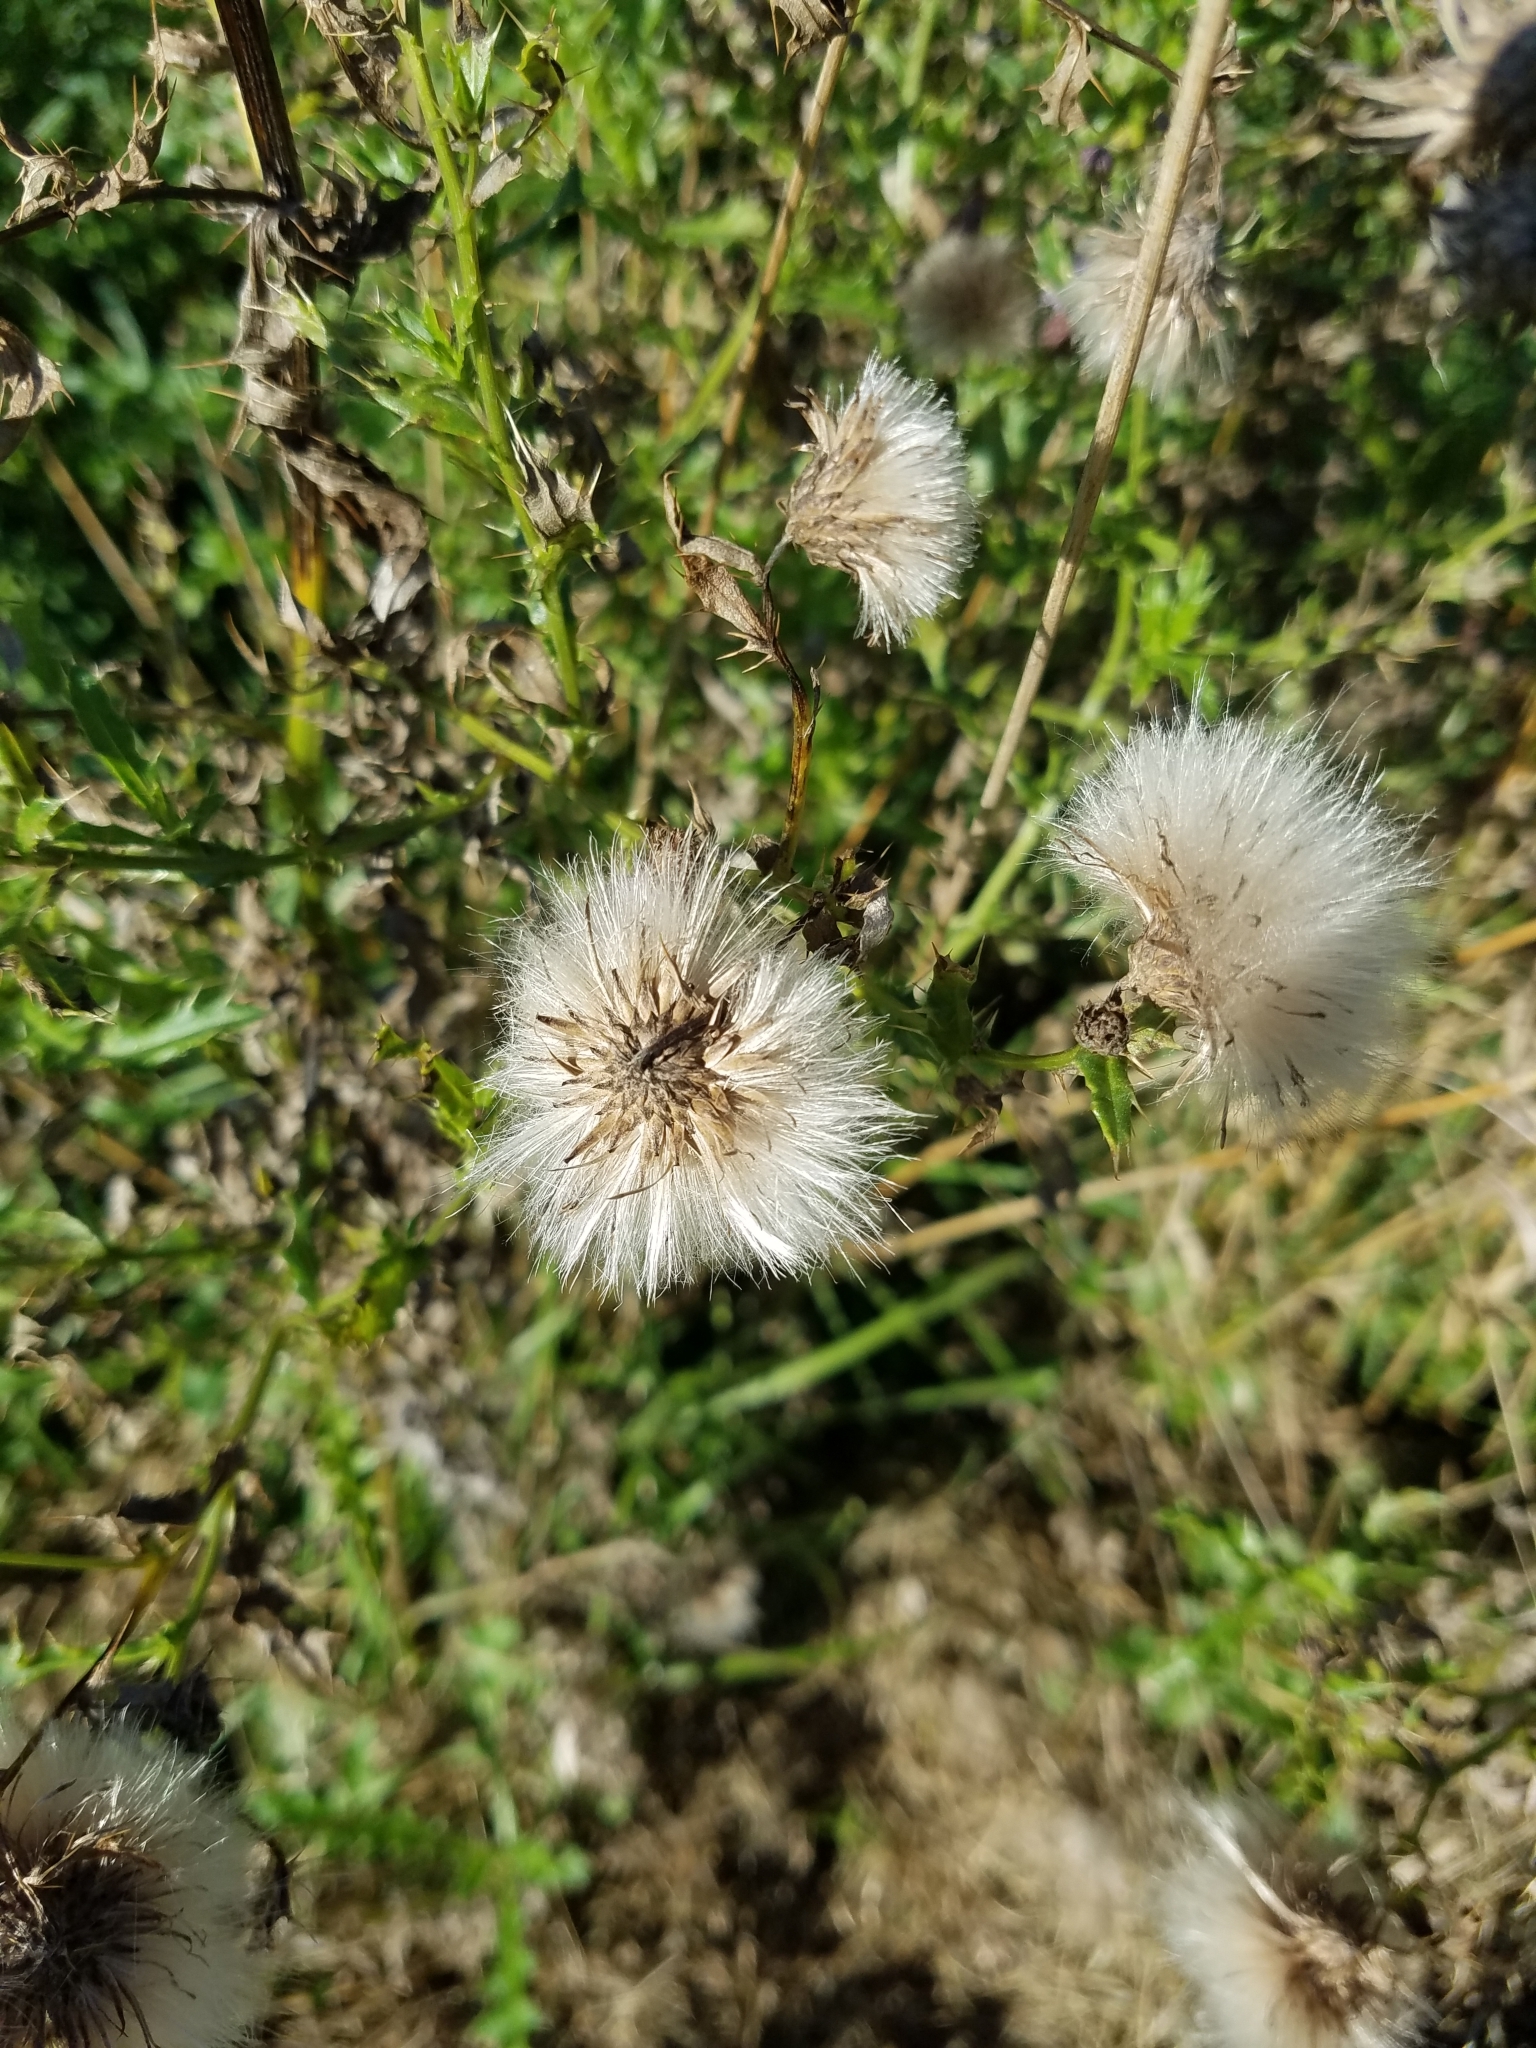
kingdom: Plantae
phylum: Tracheophyta
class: Magnoliopsida
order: Asterales
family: Asteraceae
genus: Cirsium
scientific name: Cirsium arvense
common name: Creeping thistle
